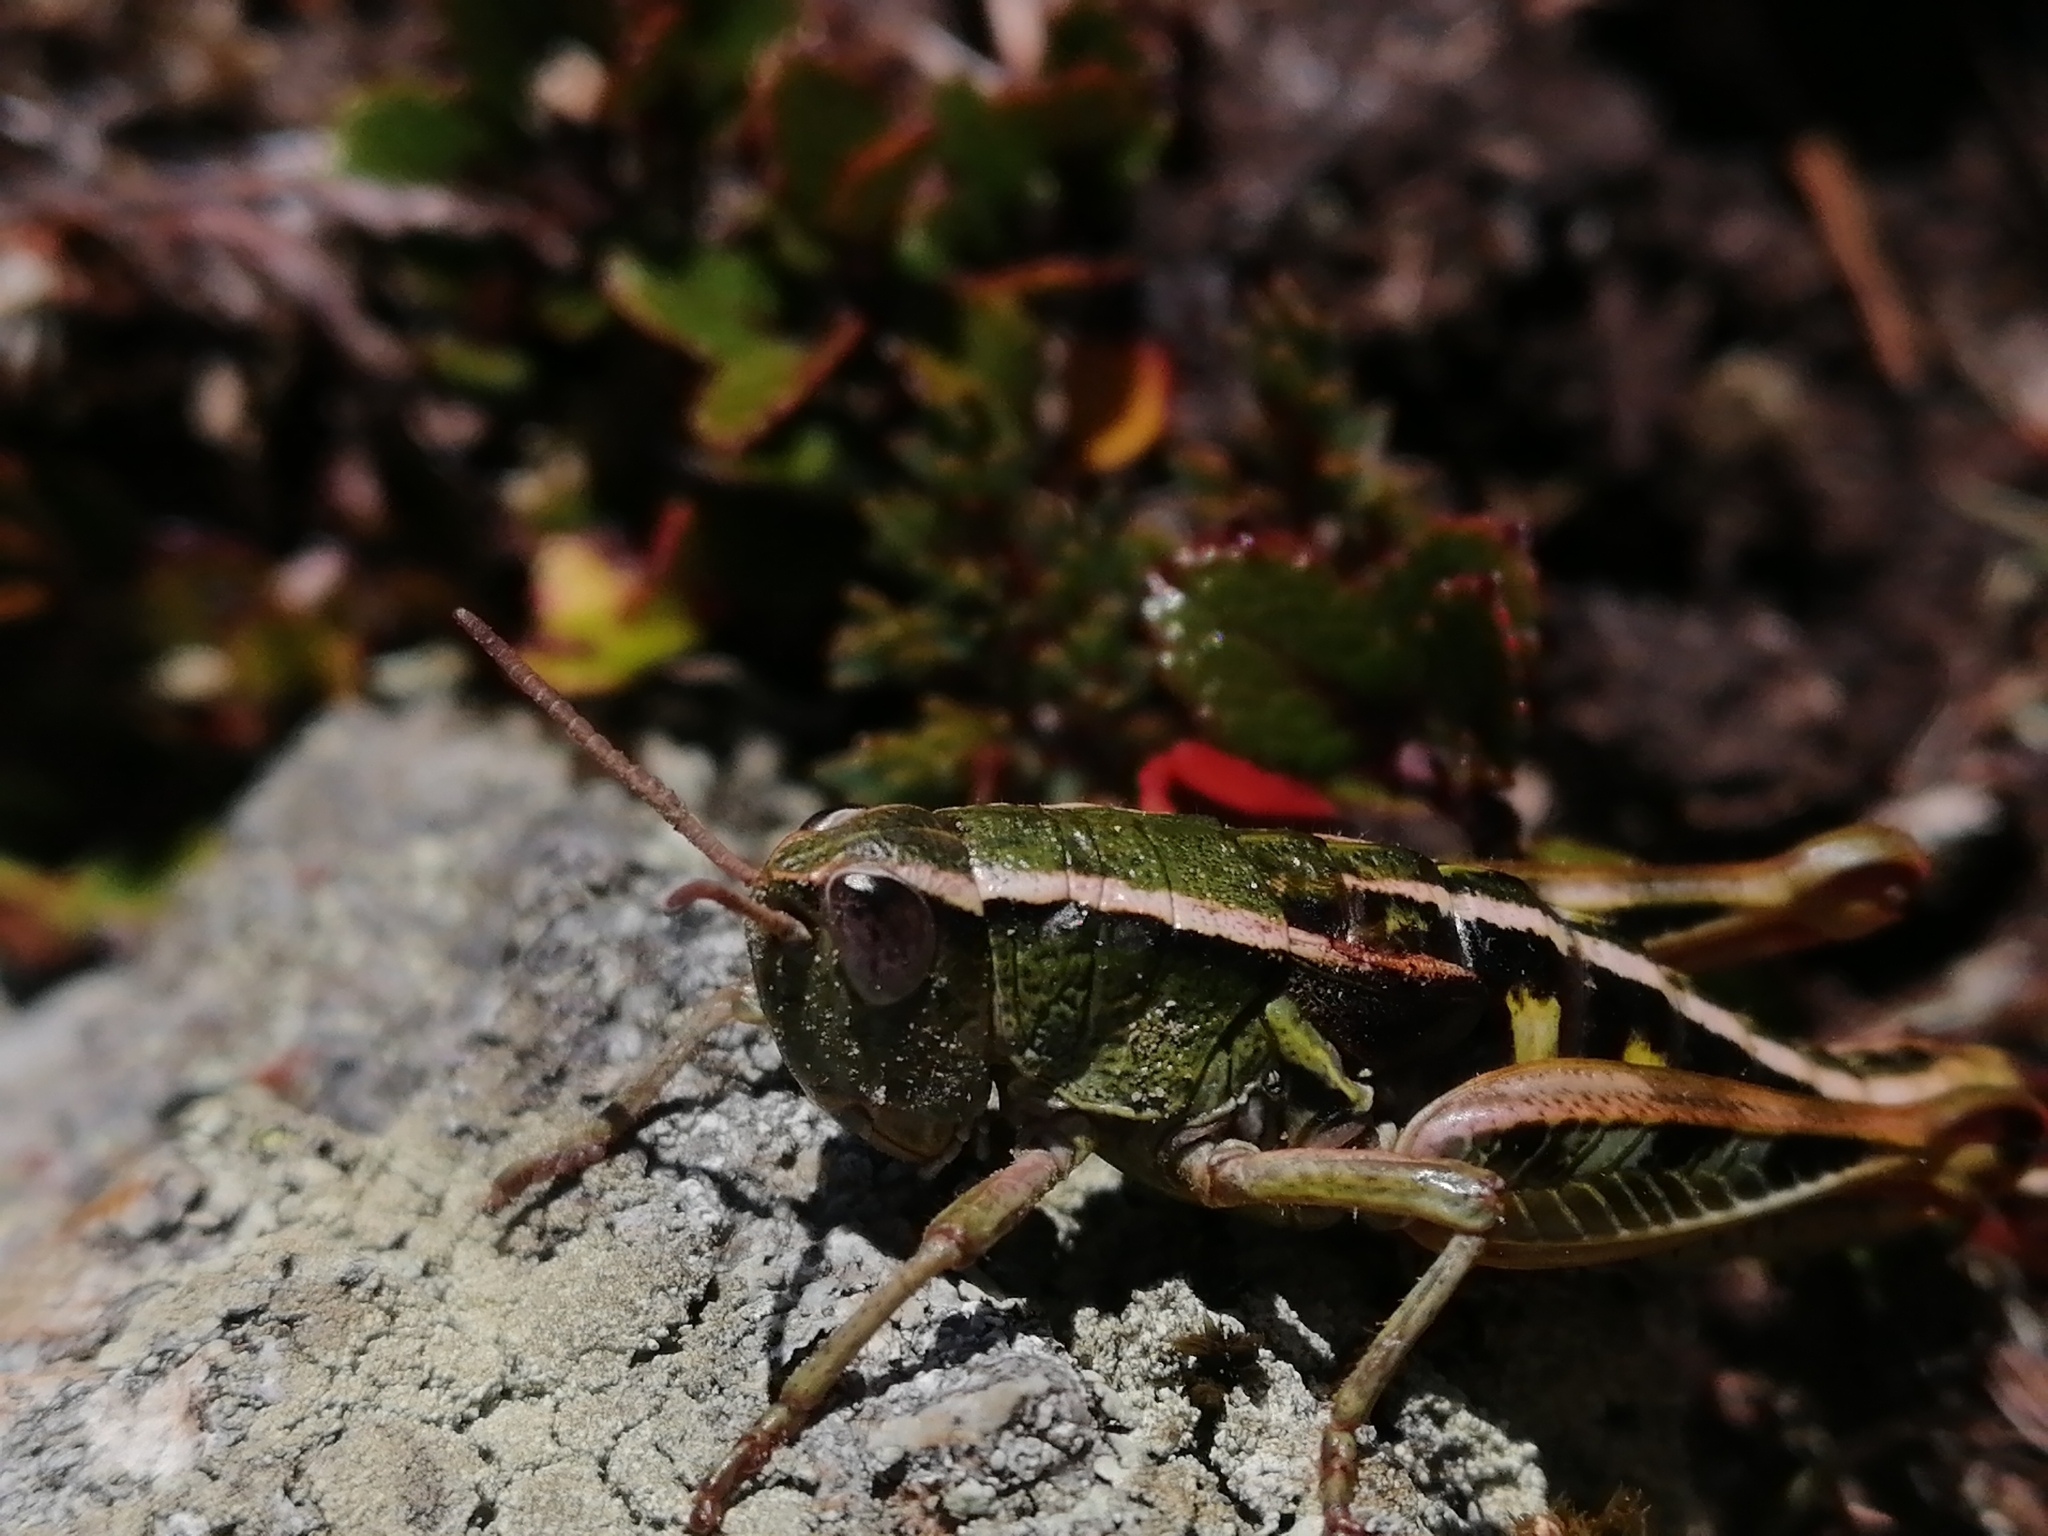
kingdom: Animalia
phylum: Arthropoda
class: Insecta
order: Orthoptera
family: Acrididae
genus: Sigaus
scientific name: Sigaus
